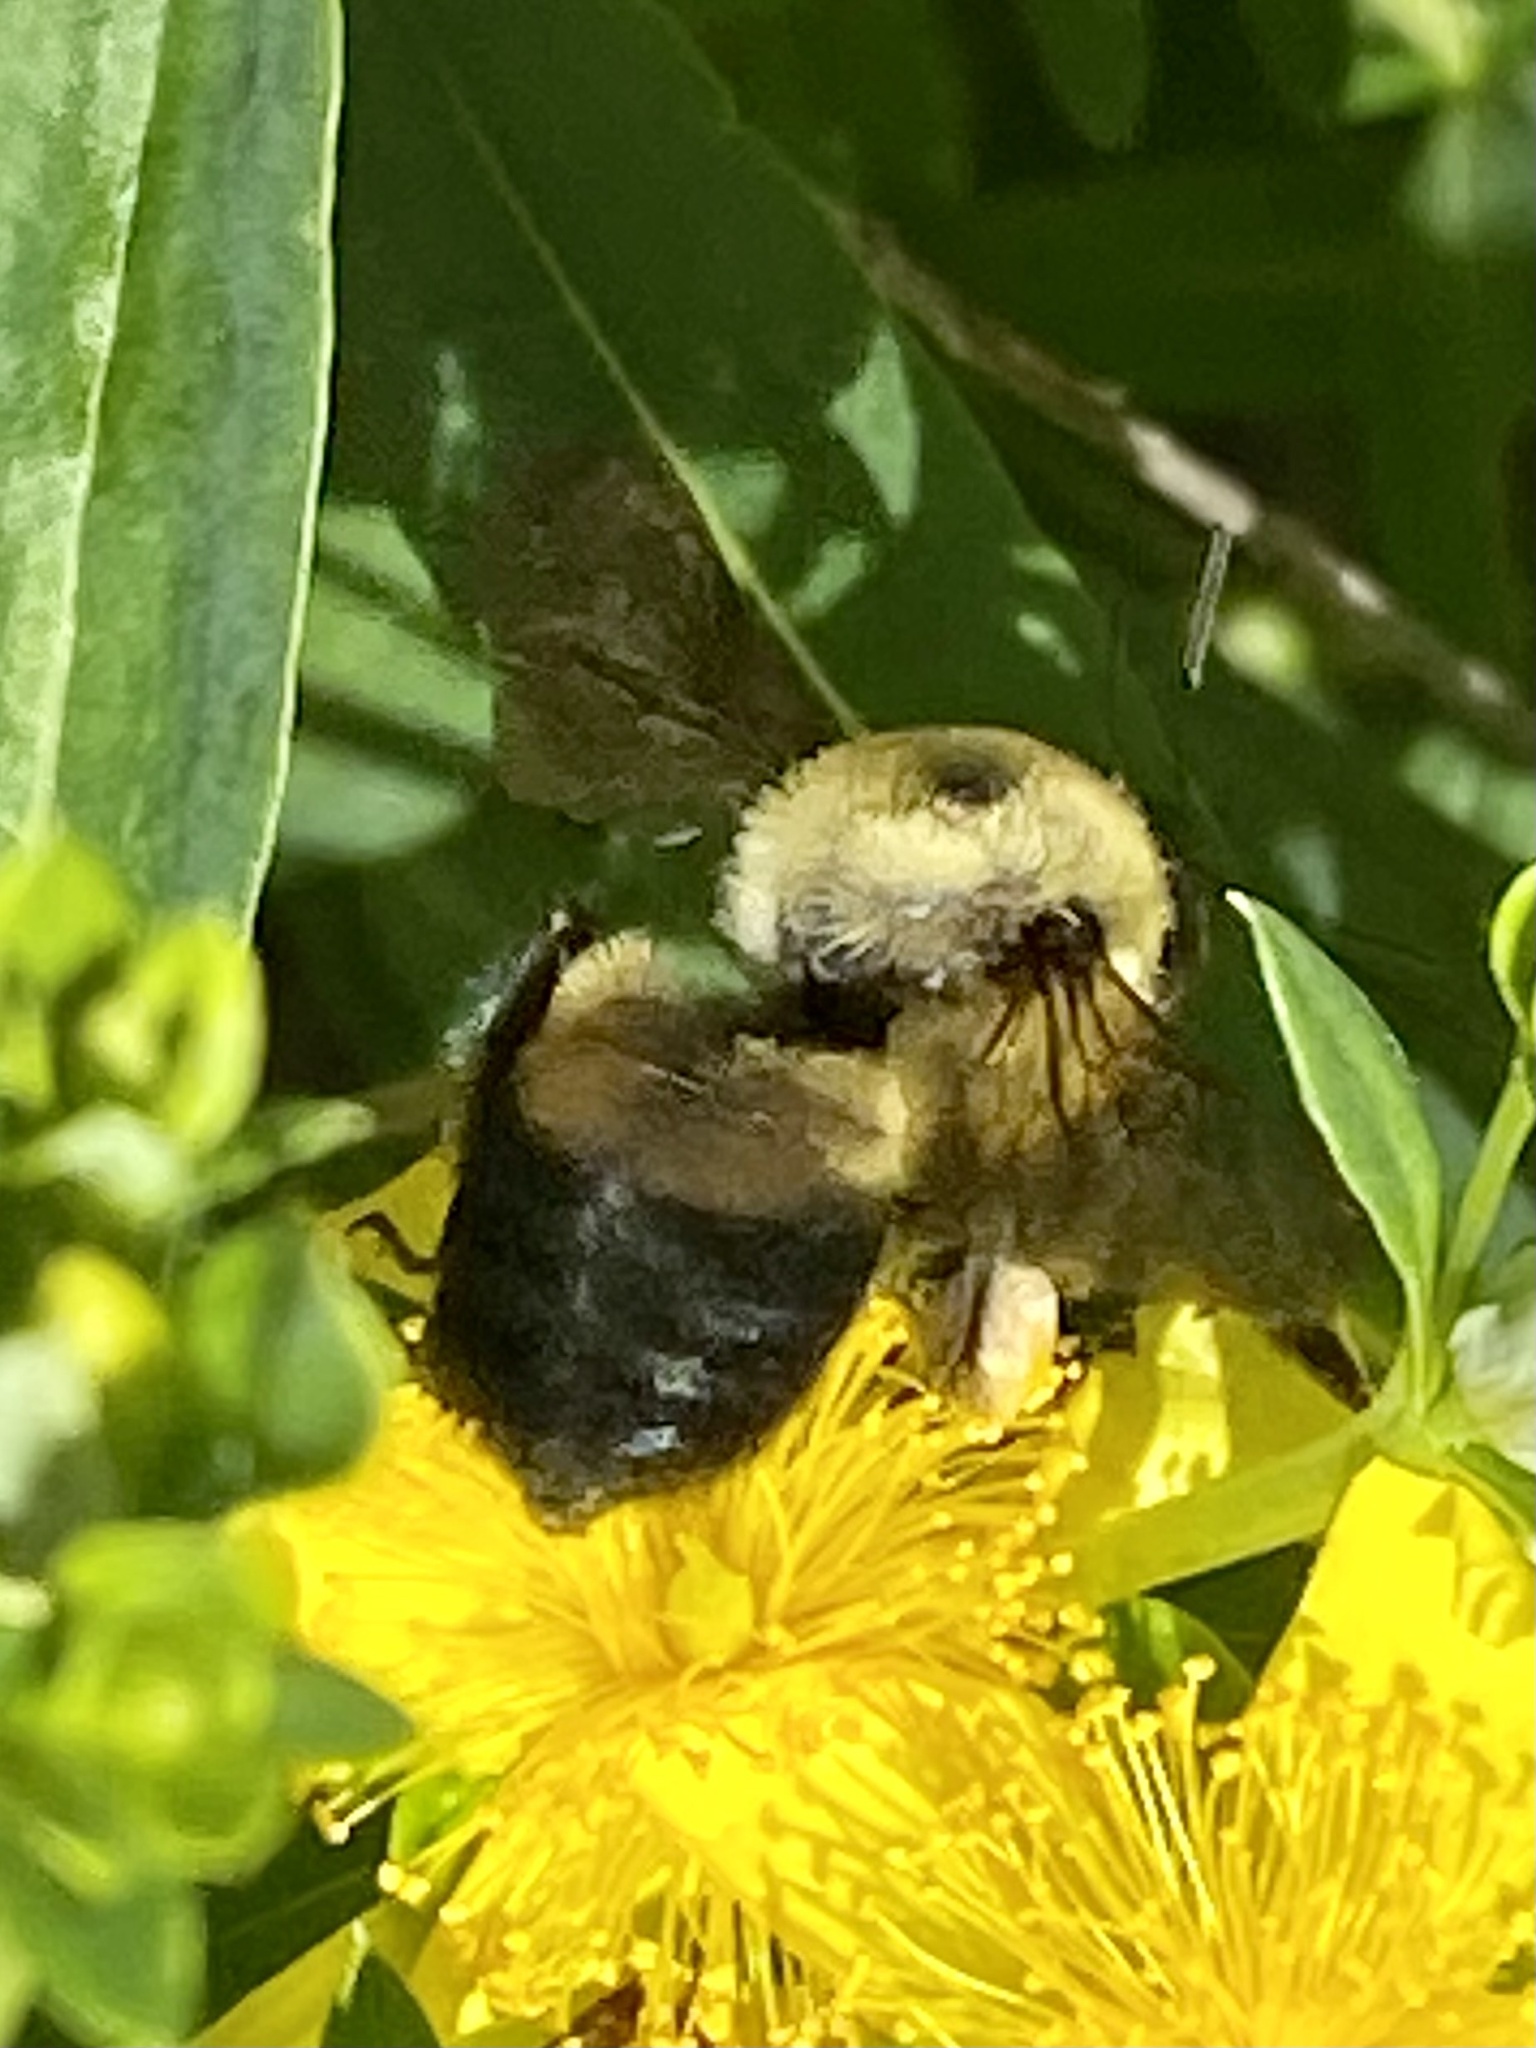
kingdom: Animalia
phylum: Arthropoda
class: Insecta
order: Hymenoptera
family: Apidae
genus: Bombus
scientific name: Bombus griseocollis
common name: Brown-belted bumble bee
